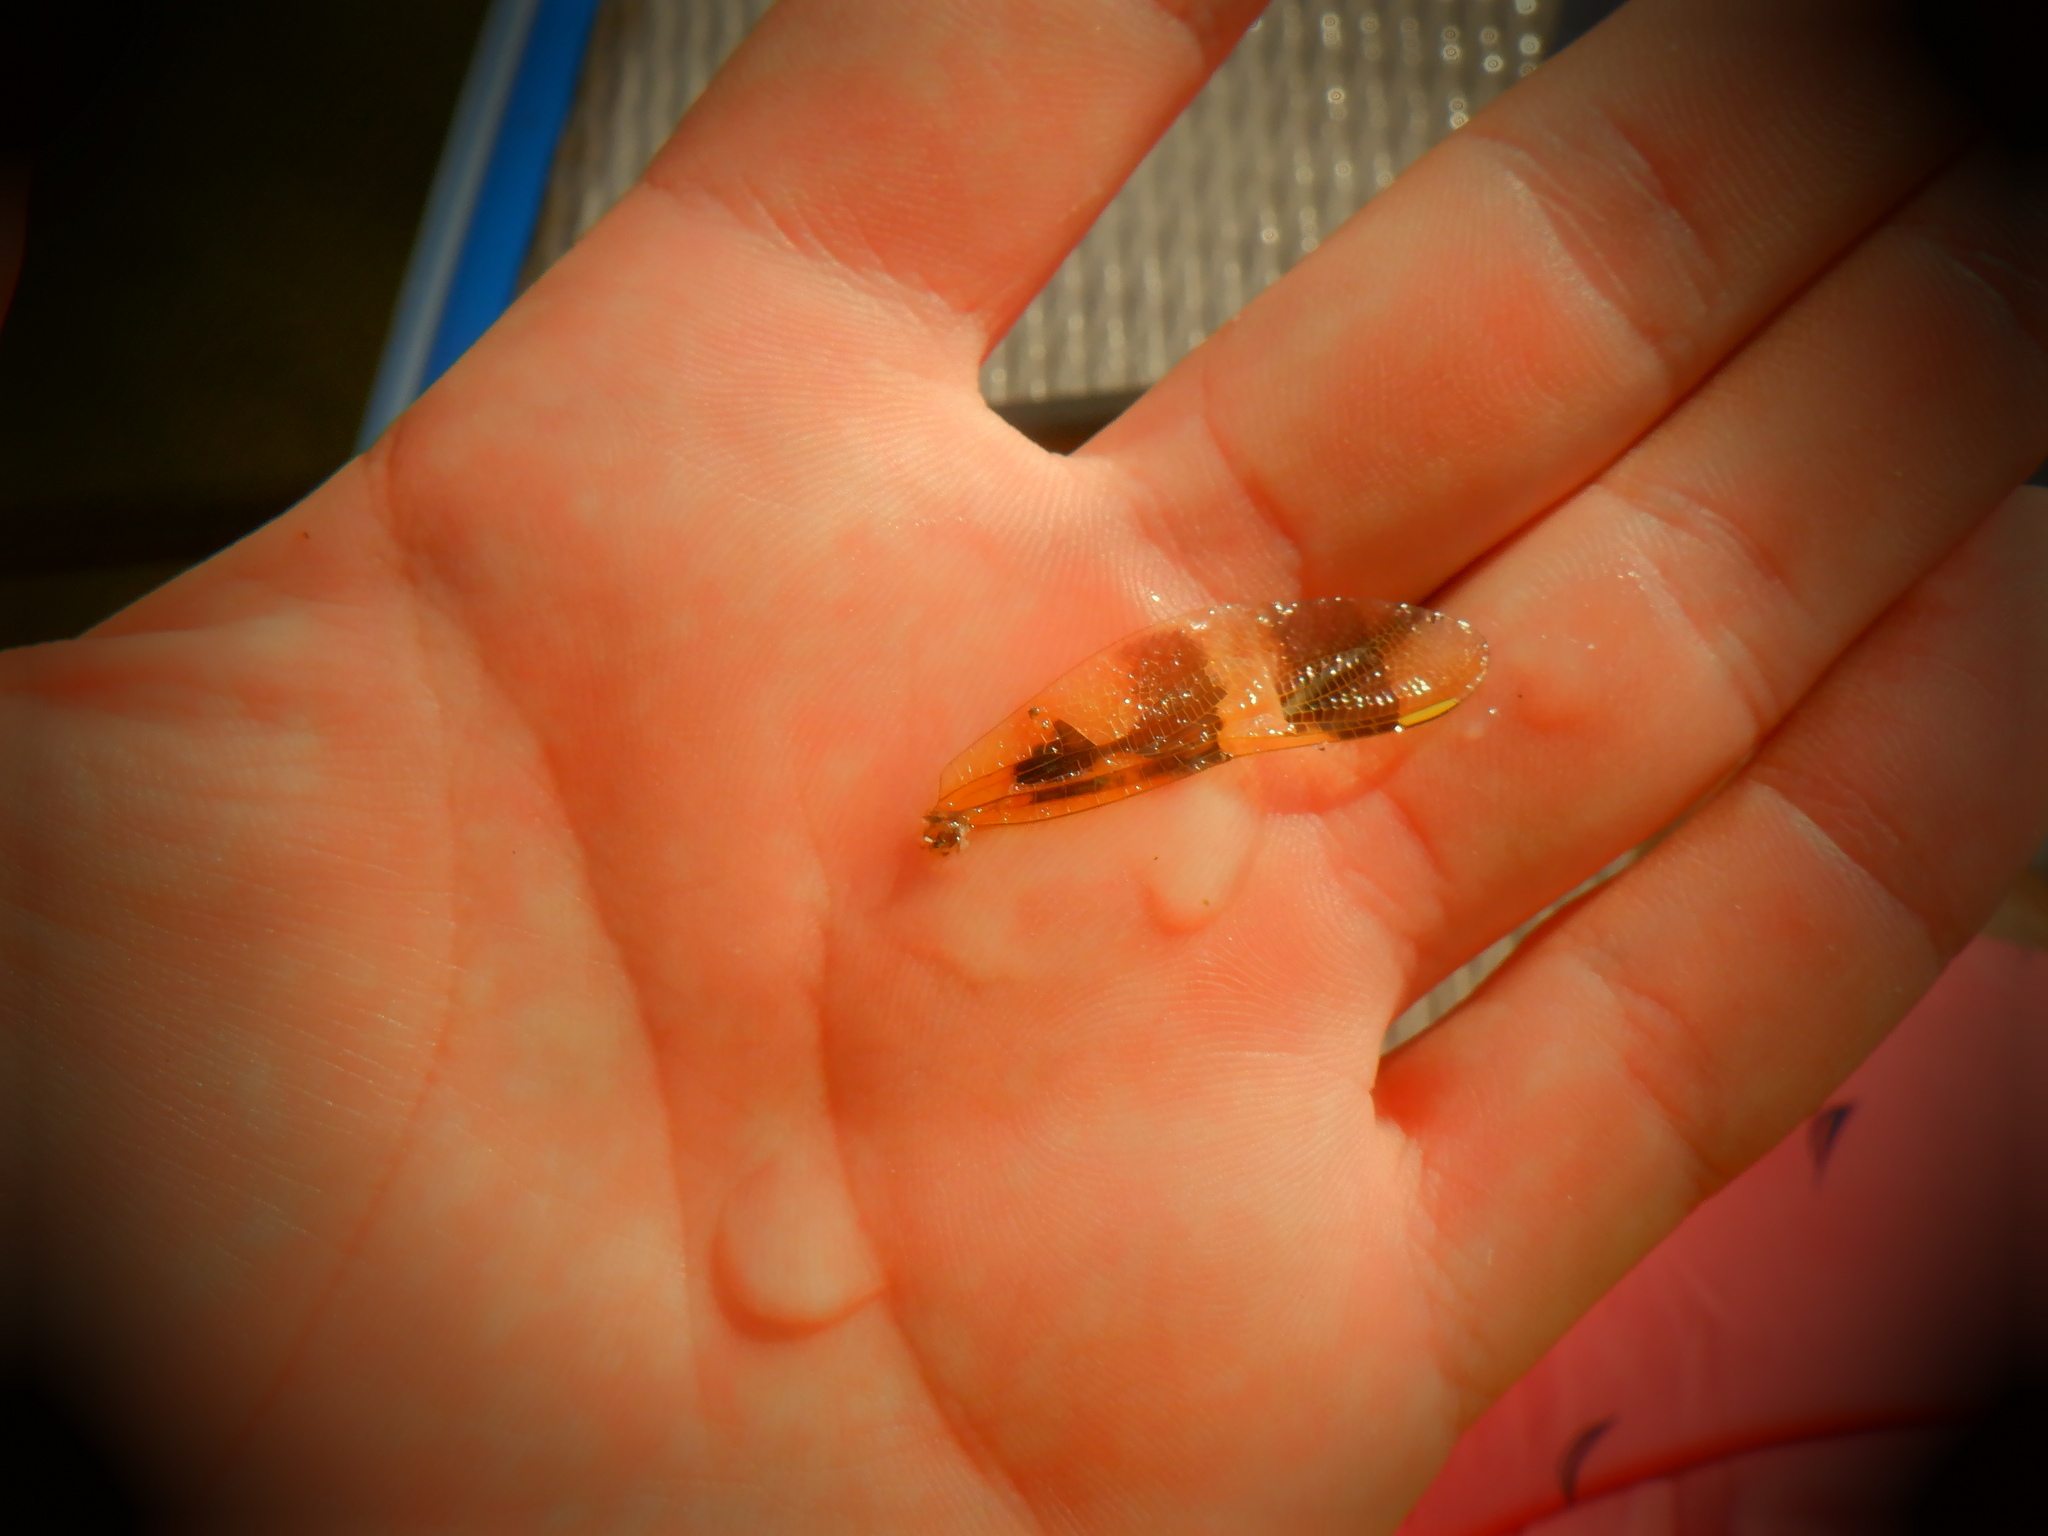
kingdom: Animalia
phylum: Arthropoda
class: Insecta
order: Odonata
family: Libellulidae
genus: Celithemis
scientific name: Celithemis eponina
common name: Halloween pennant
